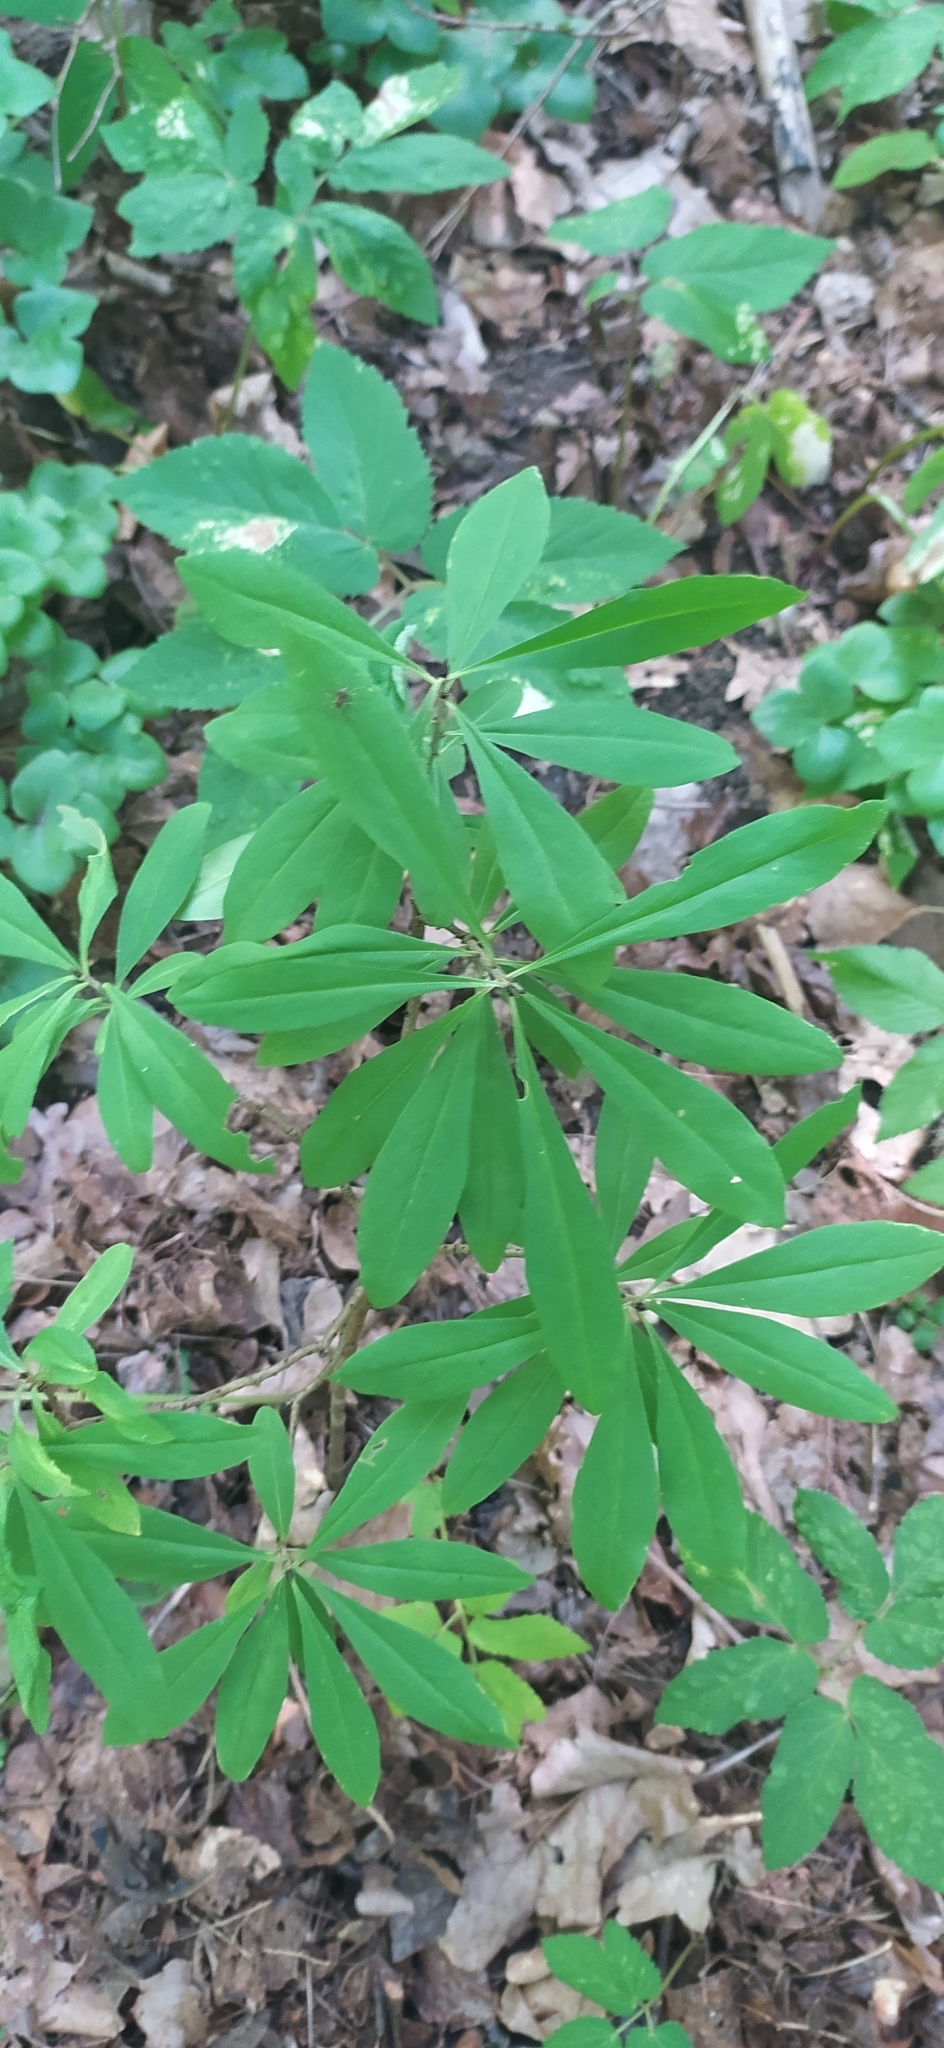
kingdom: Plantae
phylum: Tracheophyta
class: Magnoliopsida
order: Malvales
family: Thymelaeaceae
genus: Daphne
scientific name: Daphne mezereum
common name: Mezereon
